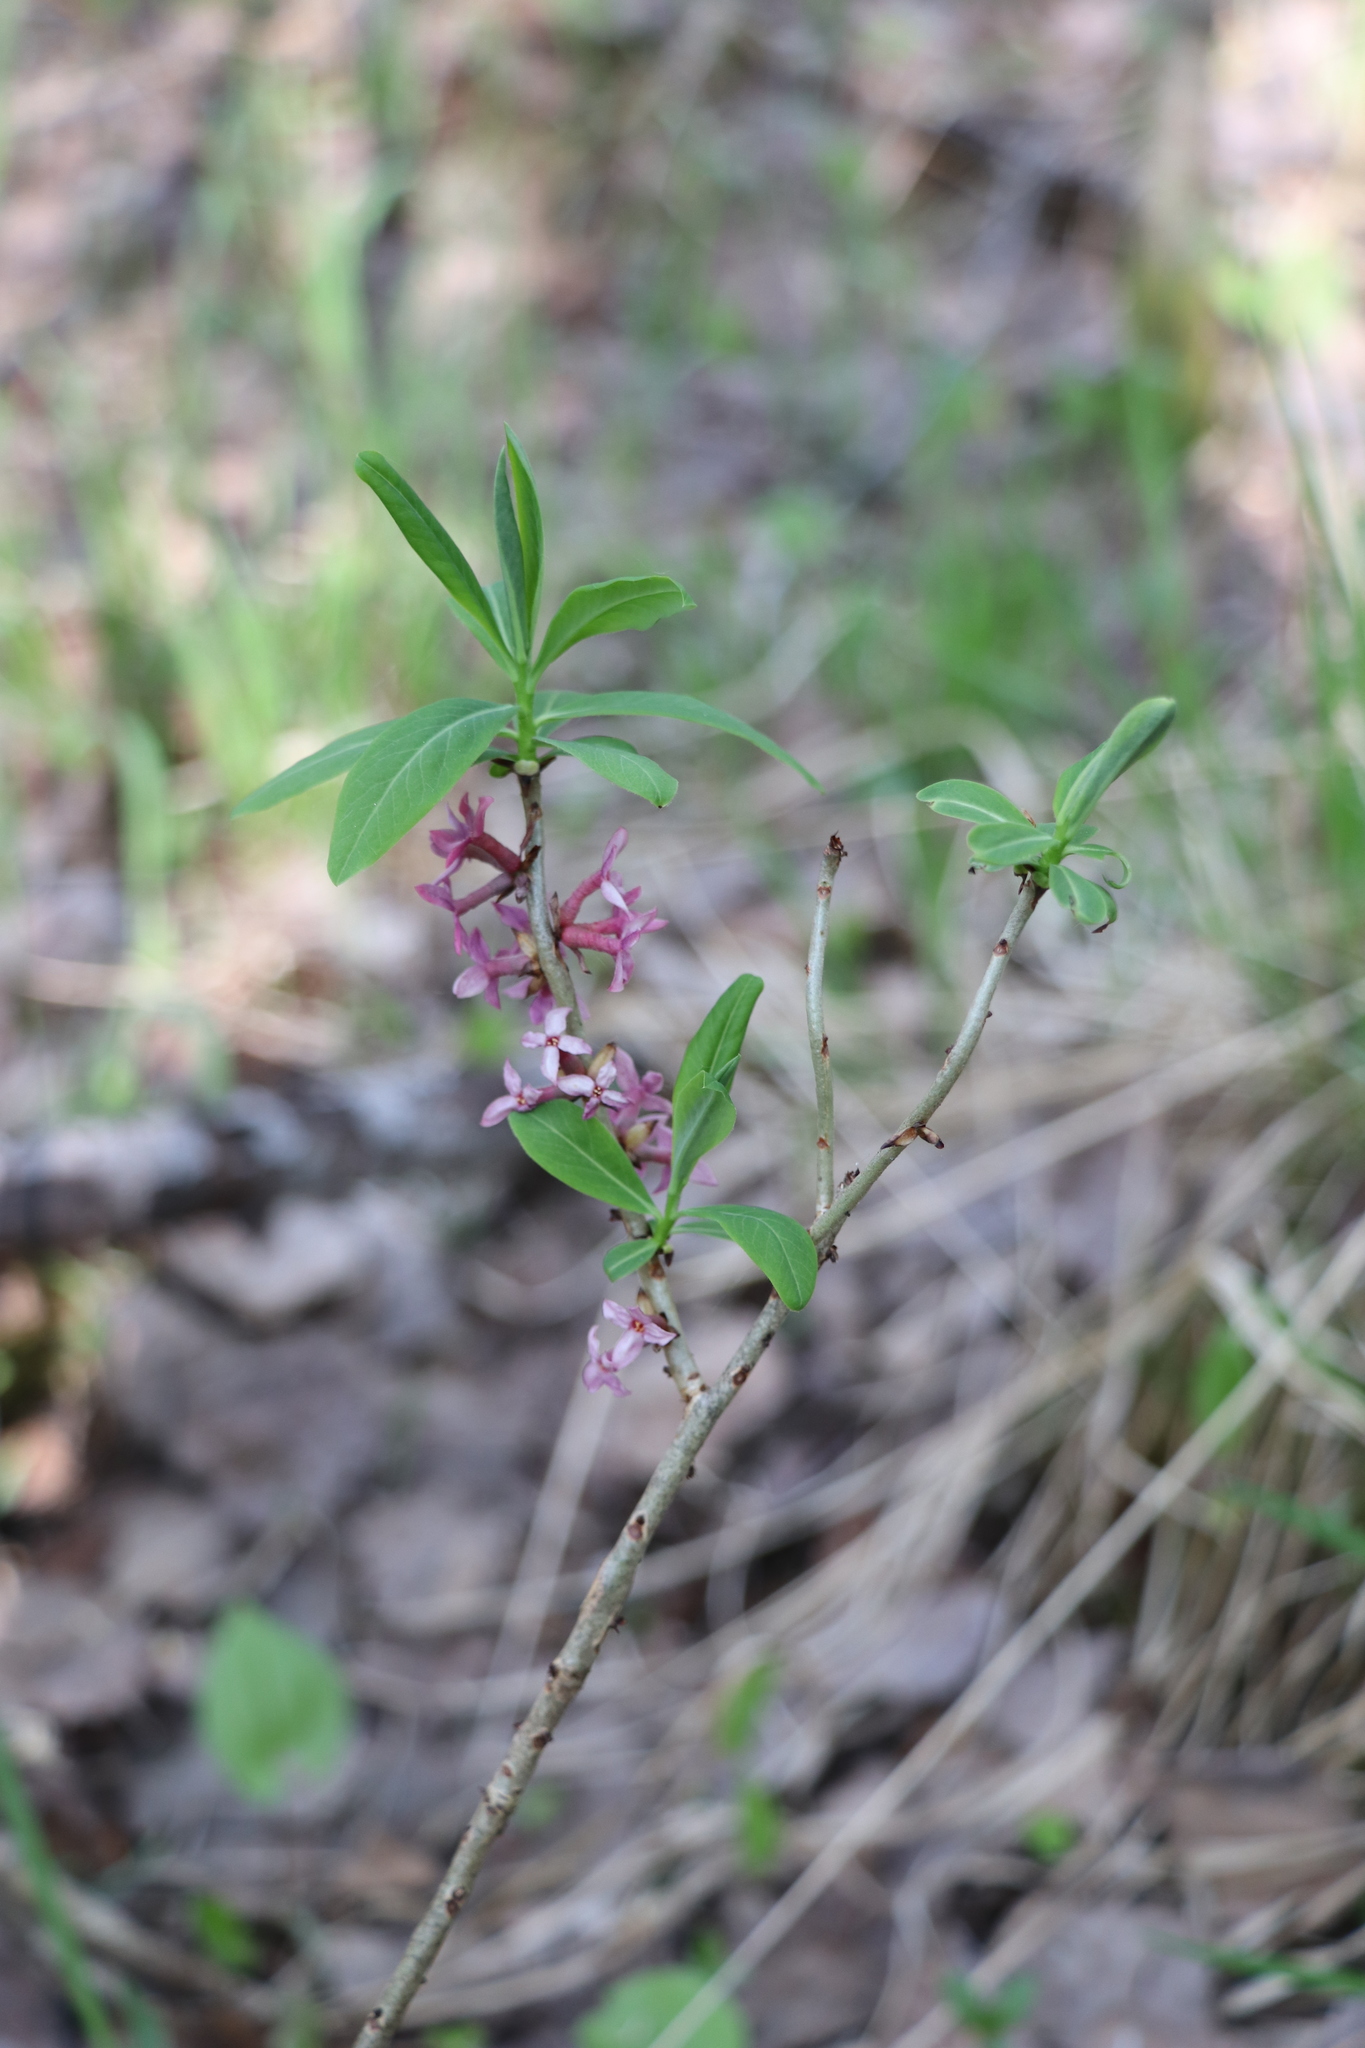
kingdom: Plantae
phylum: Tracheophyta
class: Magnoliopsida
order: Malvales
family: Thymelaeaceae
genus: Daphne
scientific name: Daphne mezereum
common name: Mezereon
